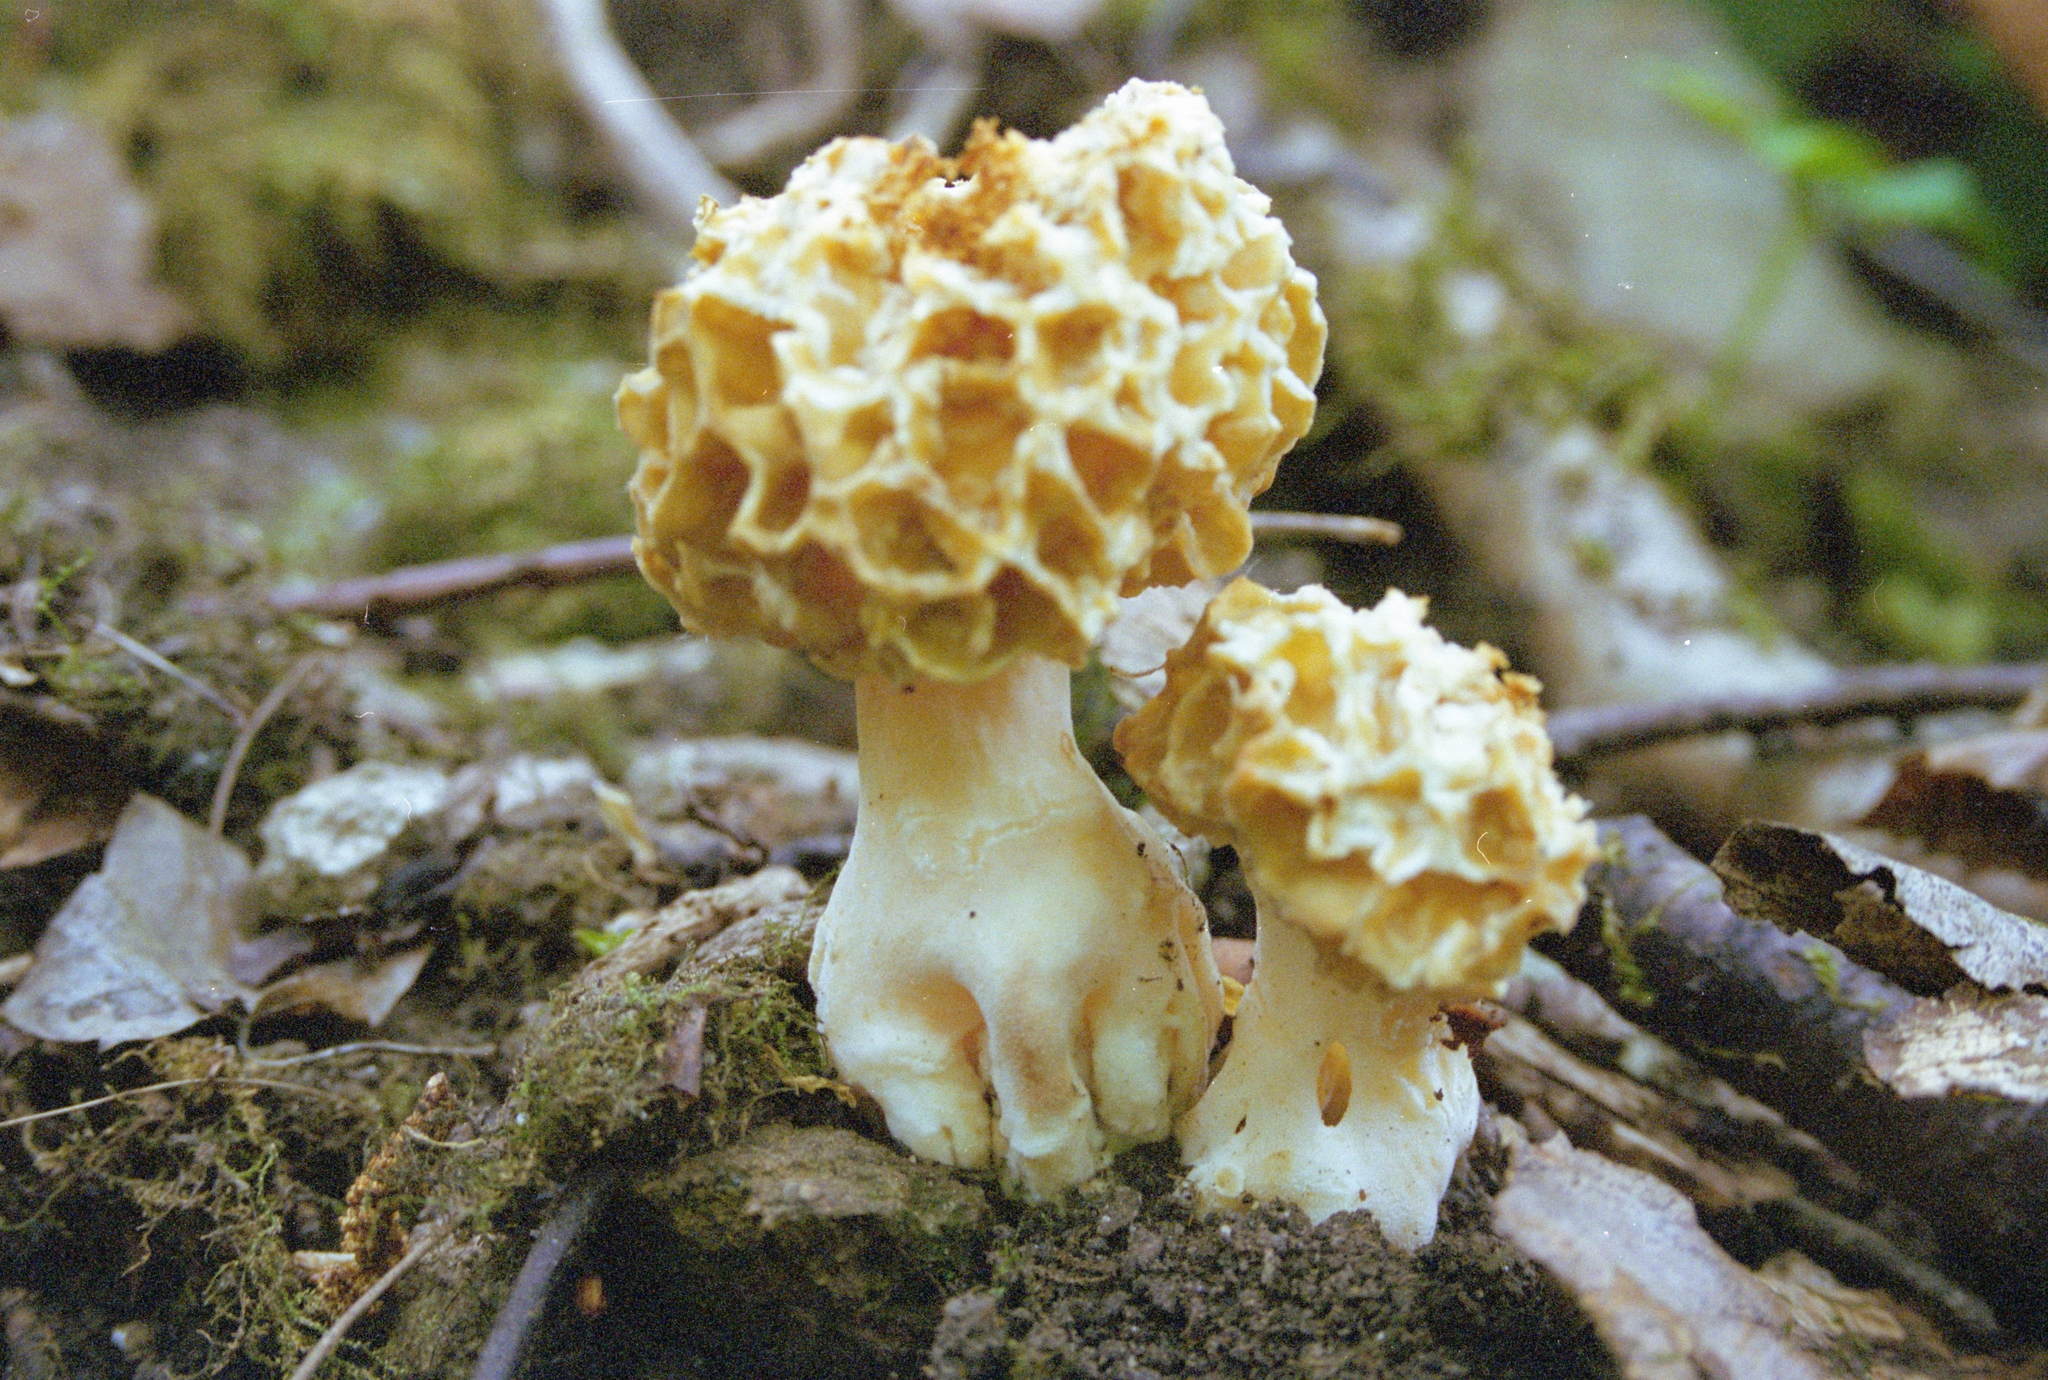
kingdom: Fungi
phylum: Ascomycota
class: Pezizomycetes
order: Pezizales
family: Morchellaceae
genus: Morchella
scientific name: Morchella esculenta
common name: Morel
